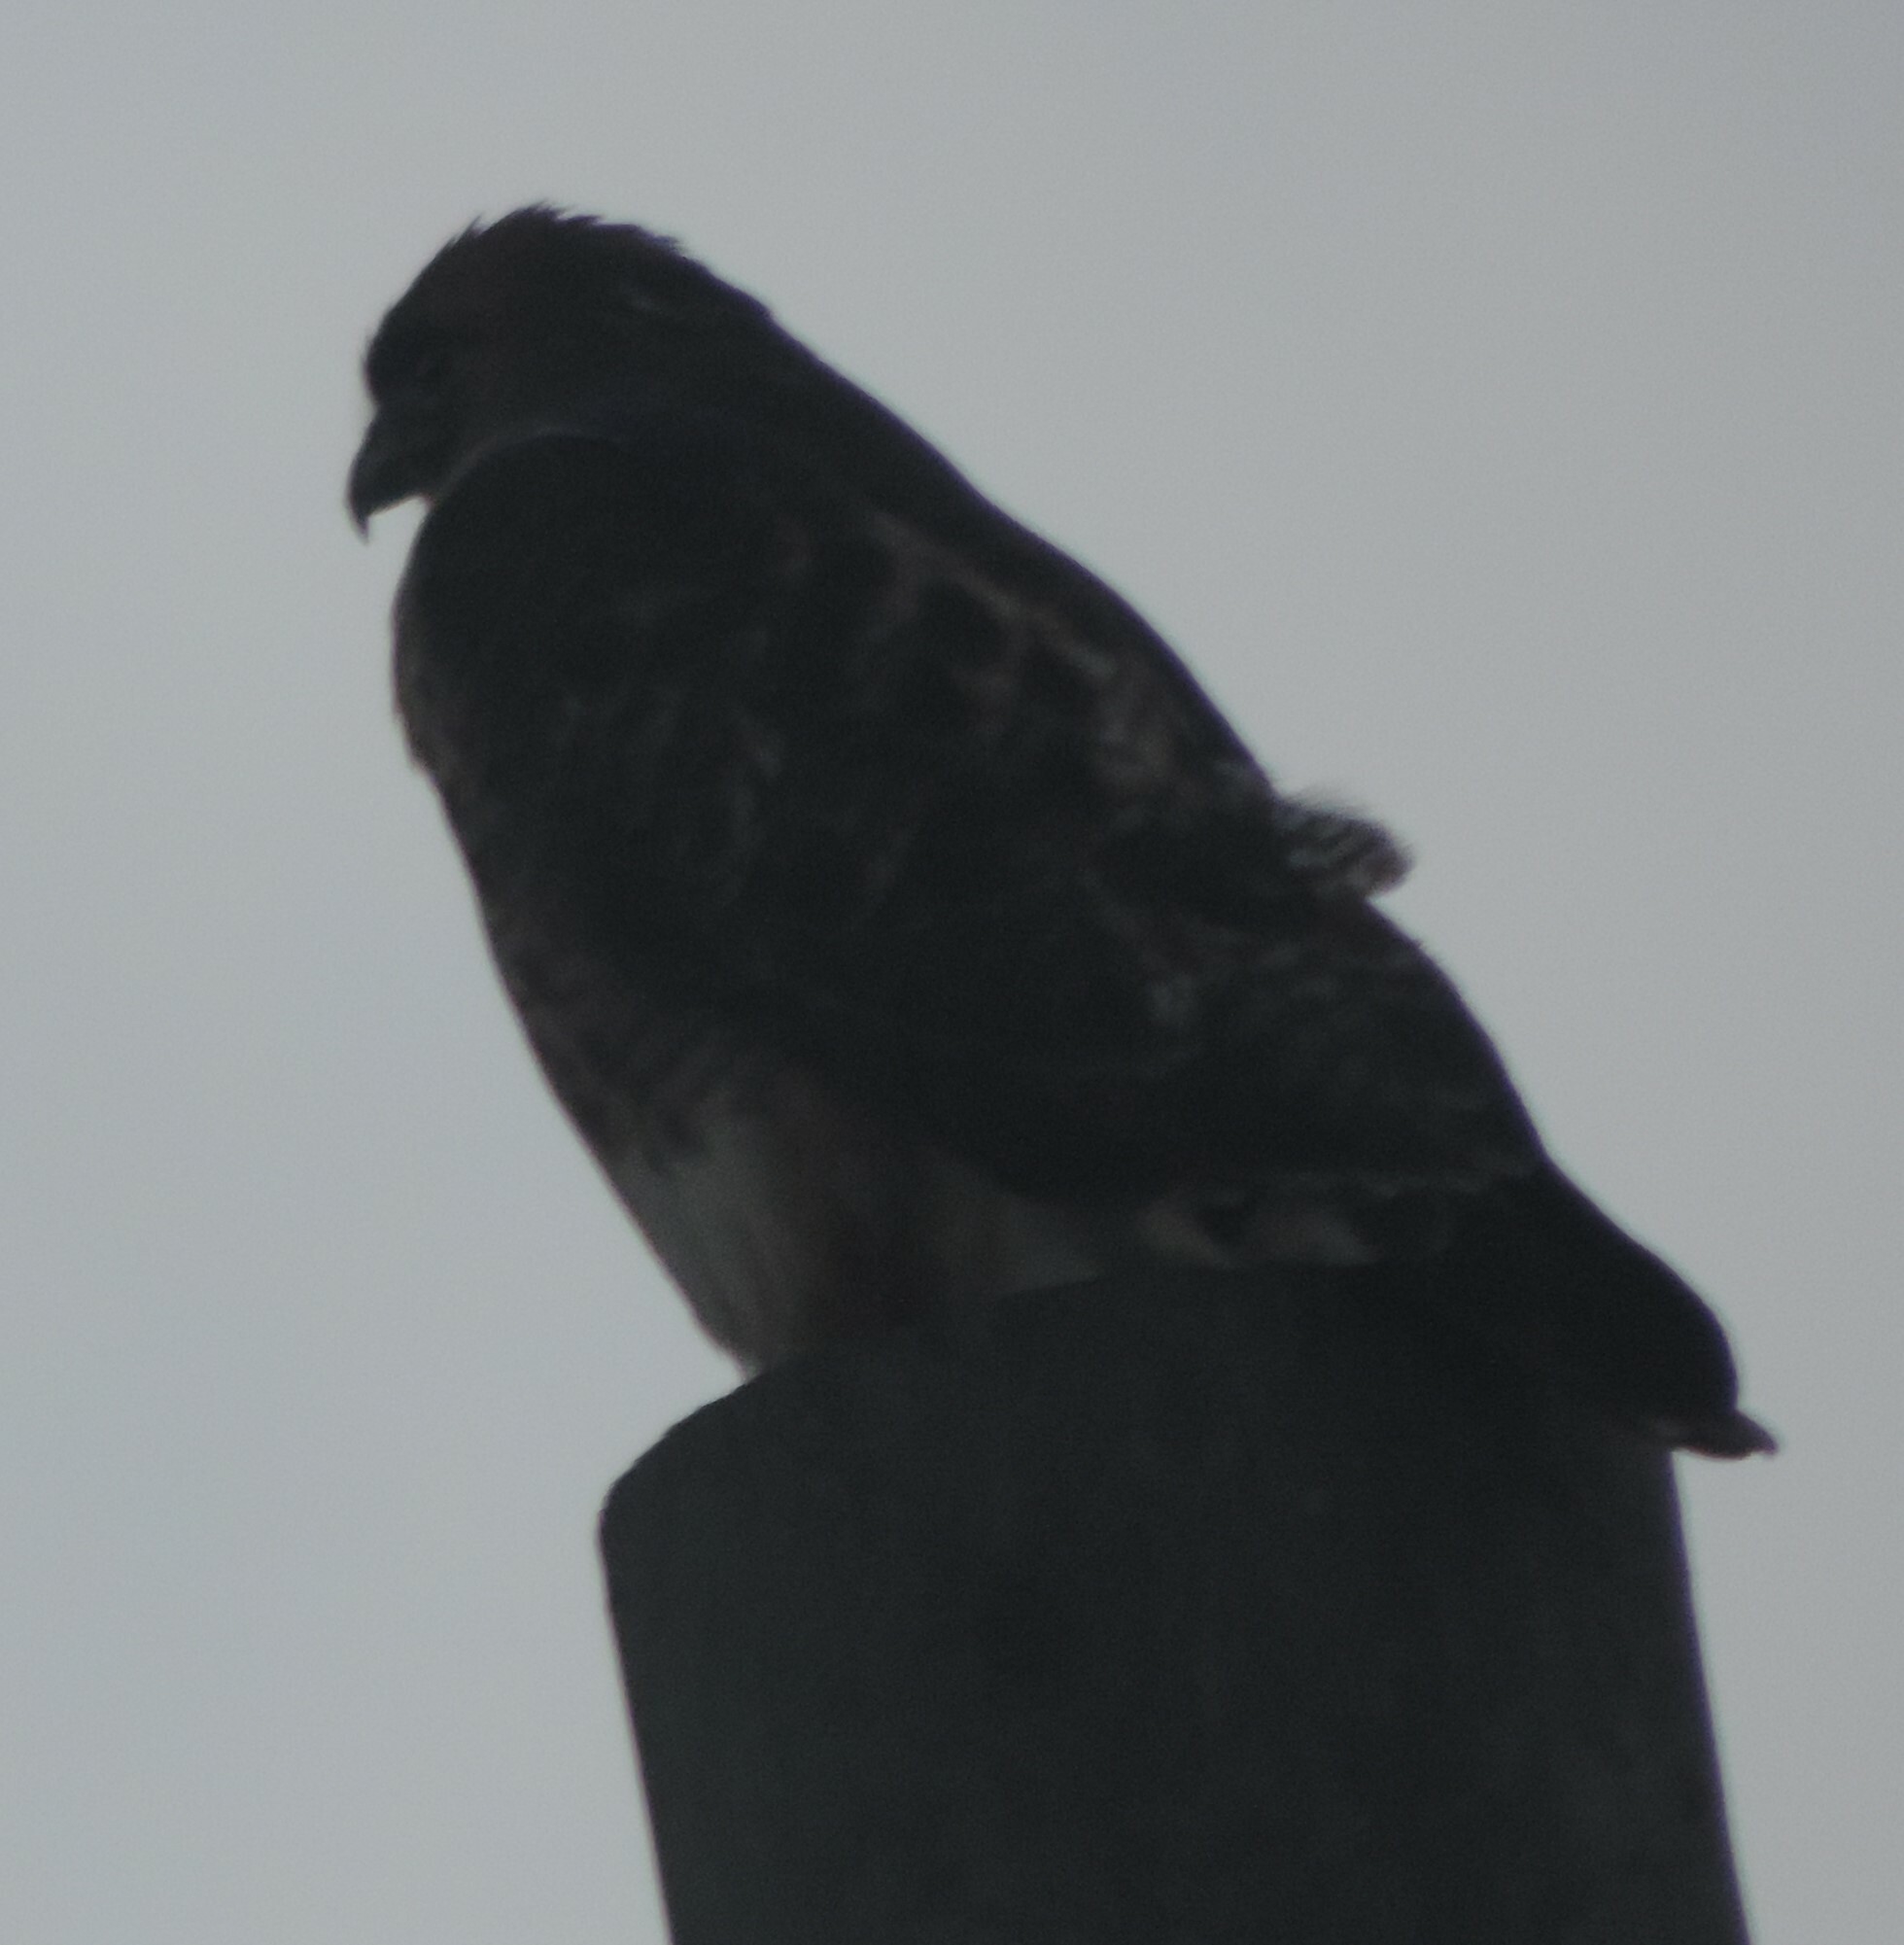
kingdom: Animalia
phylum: Chordata
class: Aves
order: Accipitriformes
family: Accipitridae
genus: Buteo
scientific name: Buteo jamaicensis
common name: Red-tailed hawk
